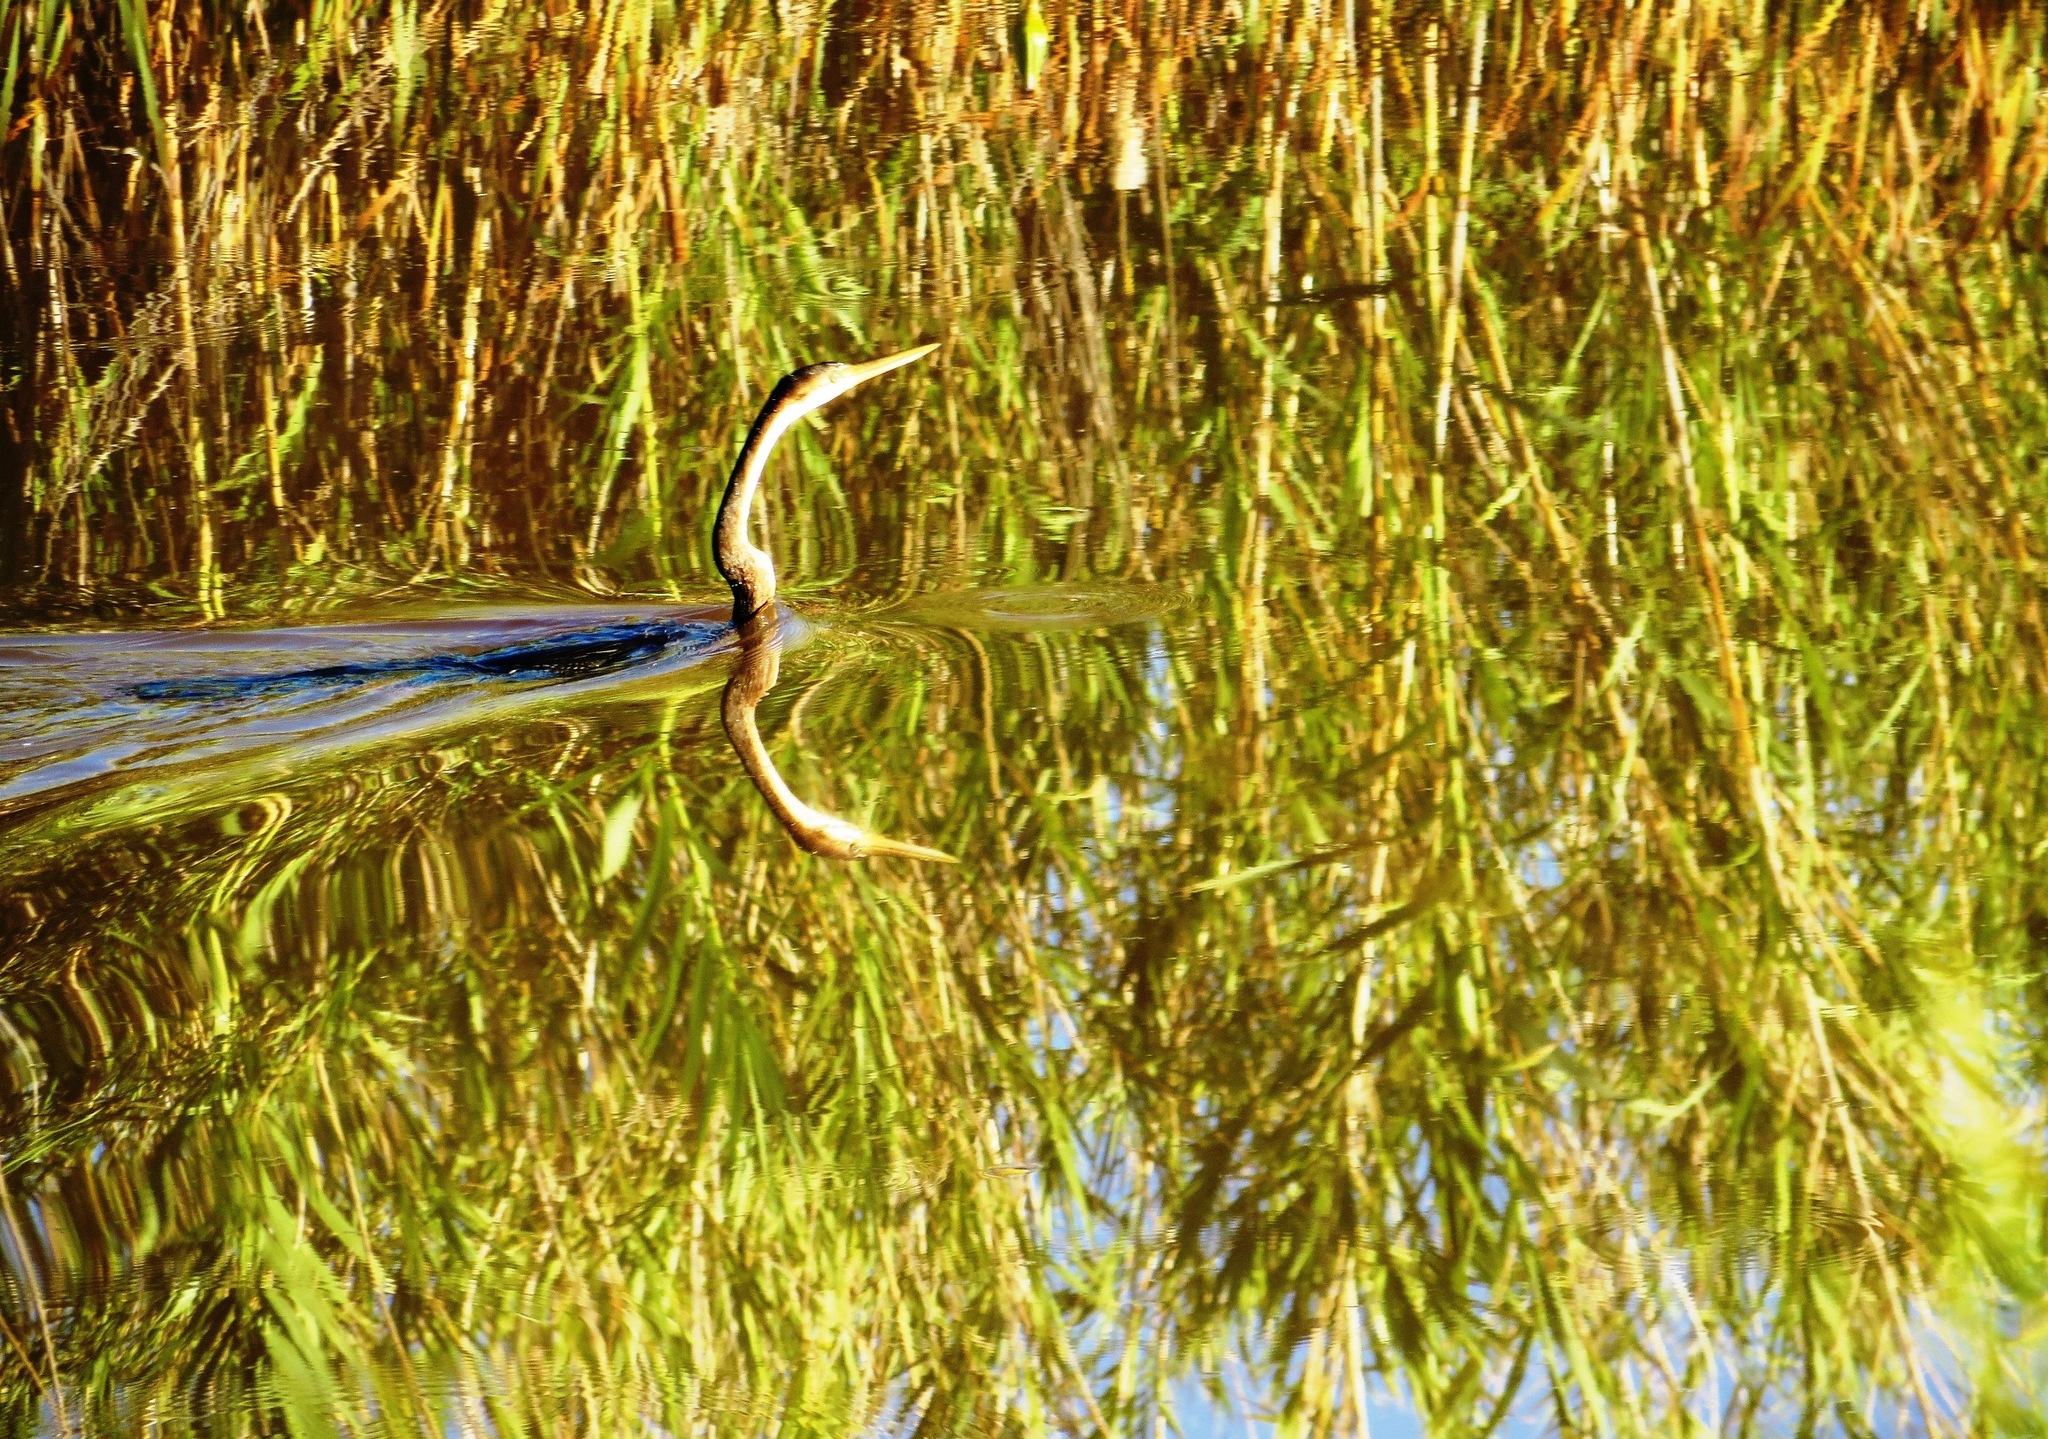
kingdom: Animalia
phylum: Chordata
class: Aves
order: Suliformes
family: Anhingidae
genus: Anhinga
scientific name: Anhinga rufa
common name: African darter
